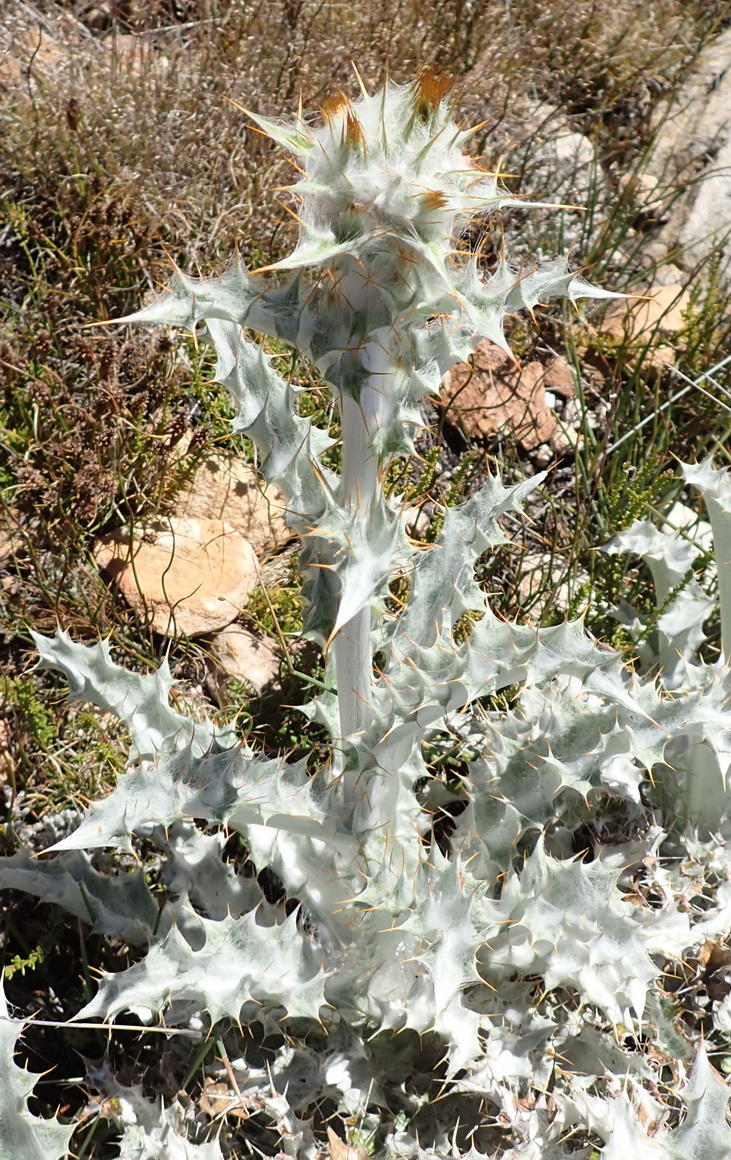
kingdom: Plantae
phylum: Tracheophyta
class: Magnoliopsida
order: Asterales
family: Asteraceae
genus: Berkheya
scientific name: Berkheya francisci
